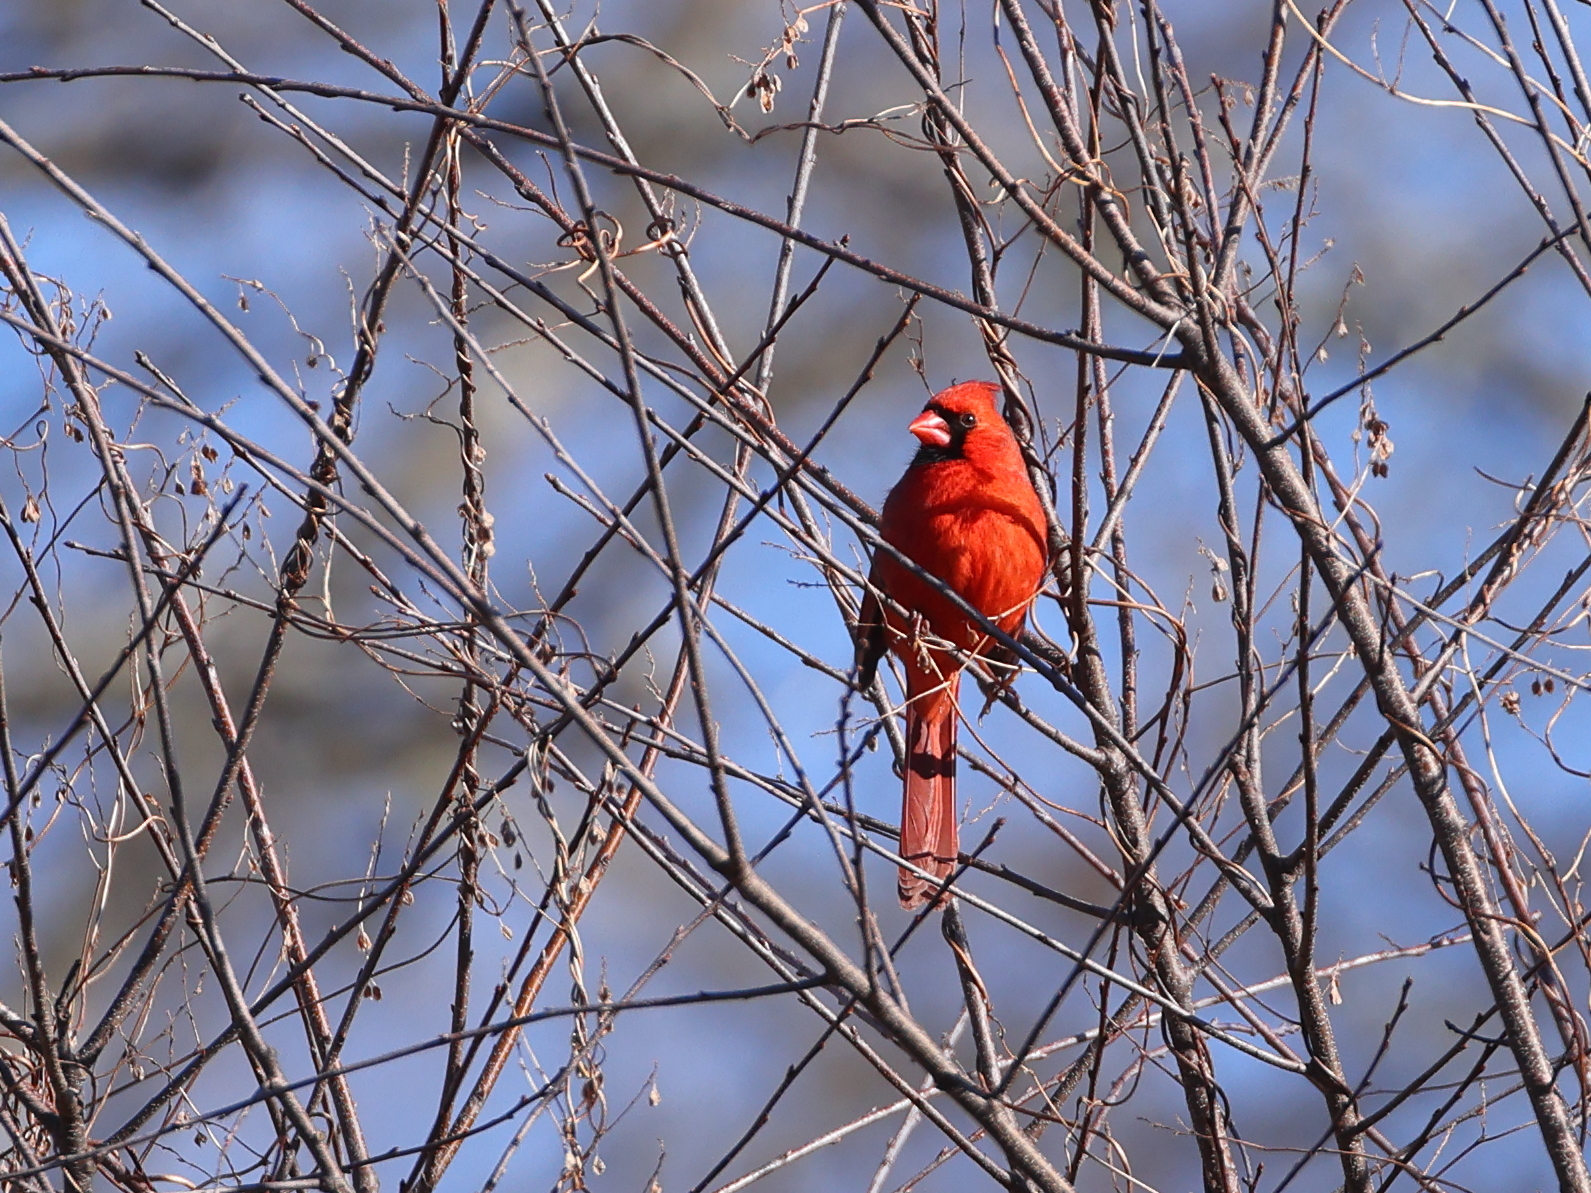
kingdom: Animalia
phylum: Chordata
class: Aves
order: Passeriformes
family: Cardinalidae
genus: Cardinalis
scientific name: Cardinalis cardinalis
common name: Northern cardinal
